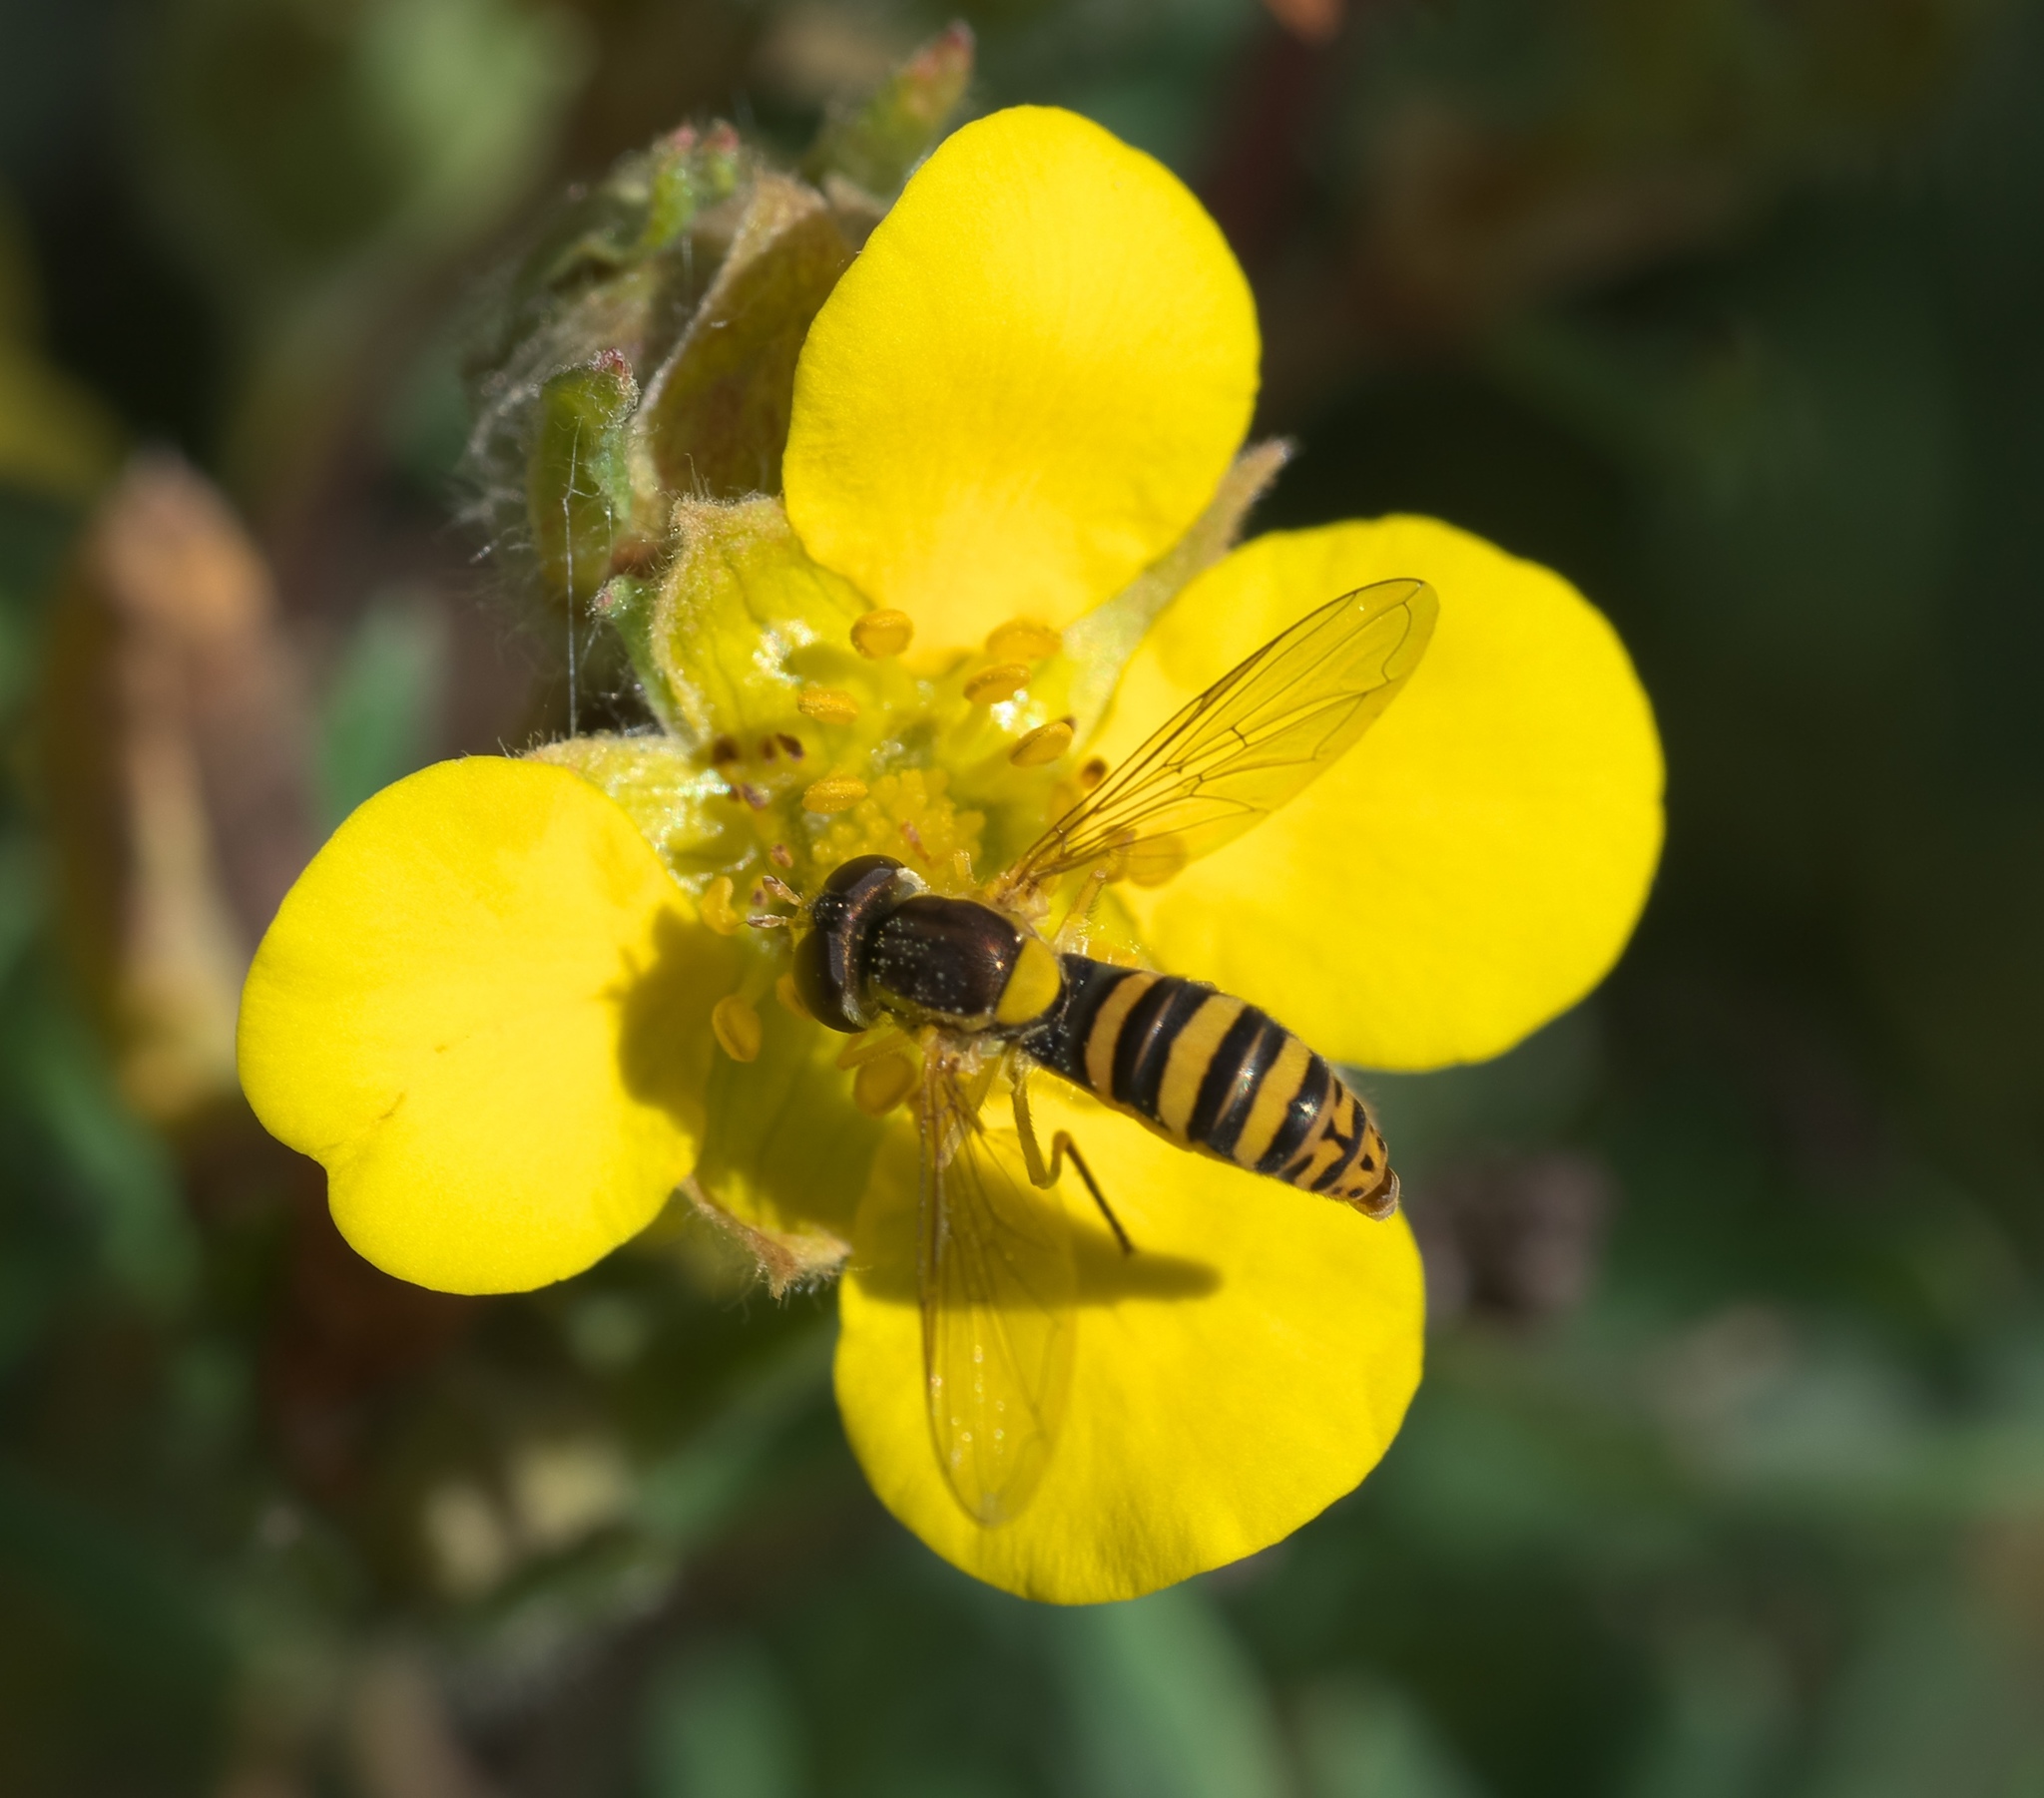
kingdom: Animalia
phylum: Arthropoda
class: Insecta
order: Diptera
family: Syrphidae
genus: Sphaerophoria
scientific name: Sphaerophoria
